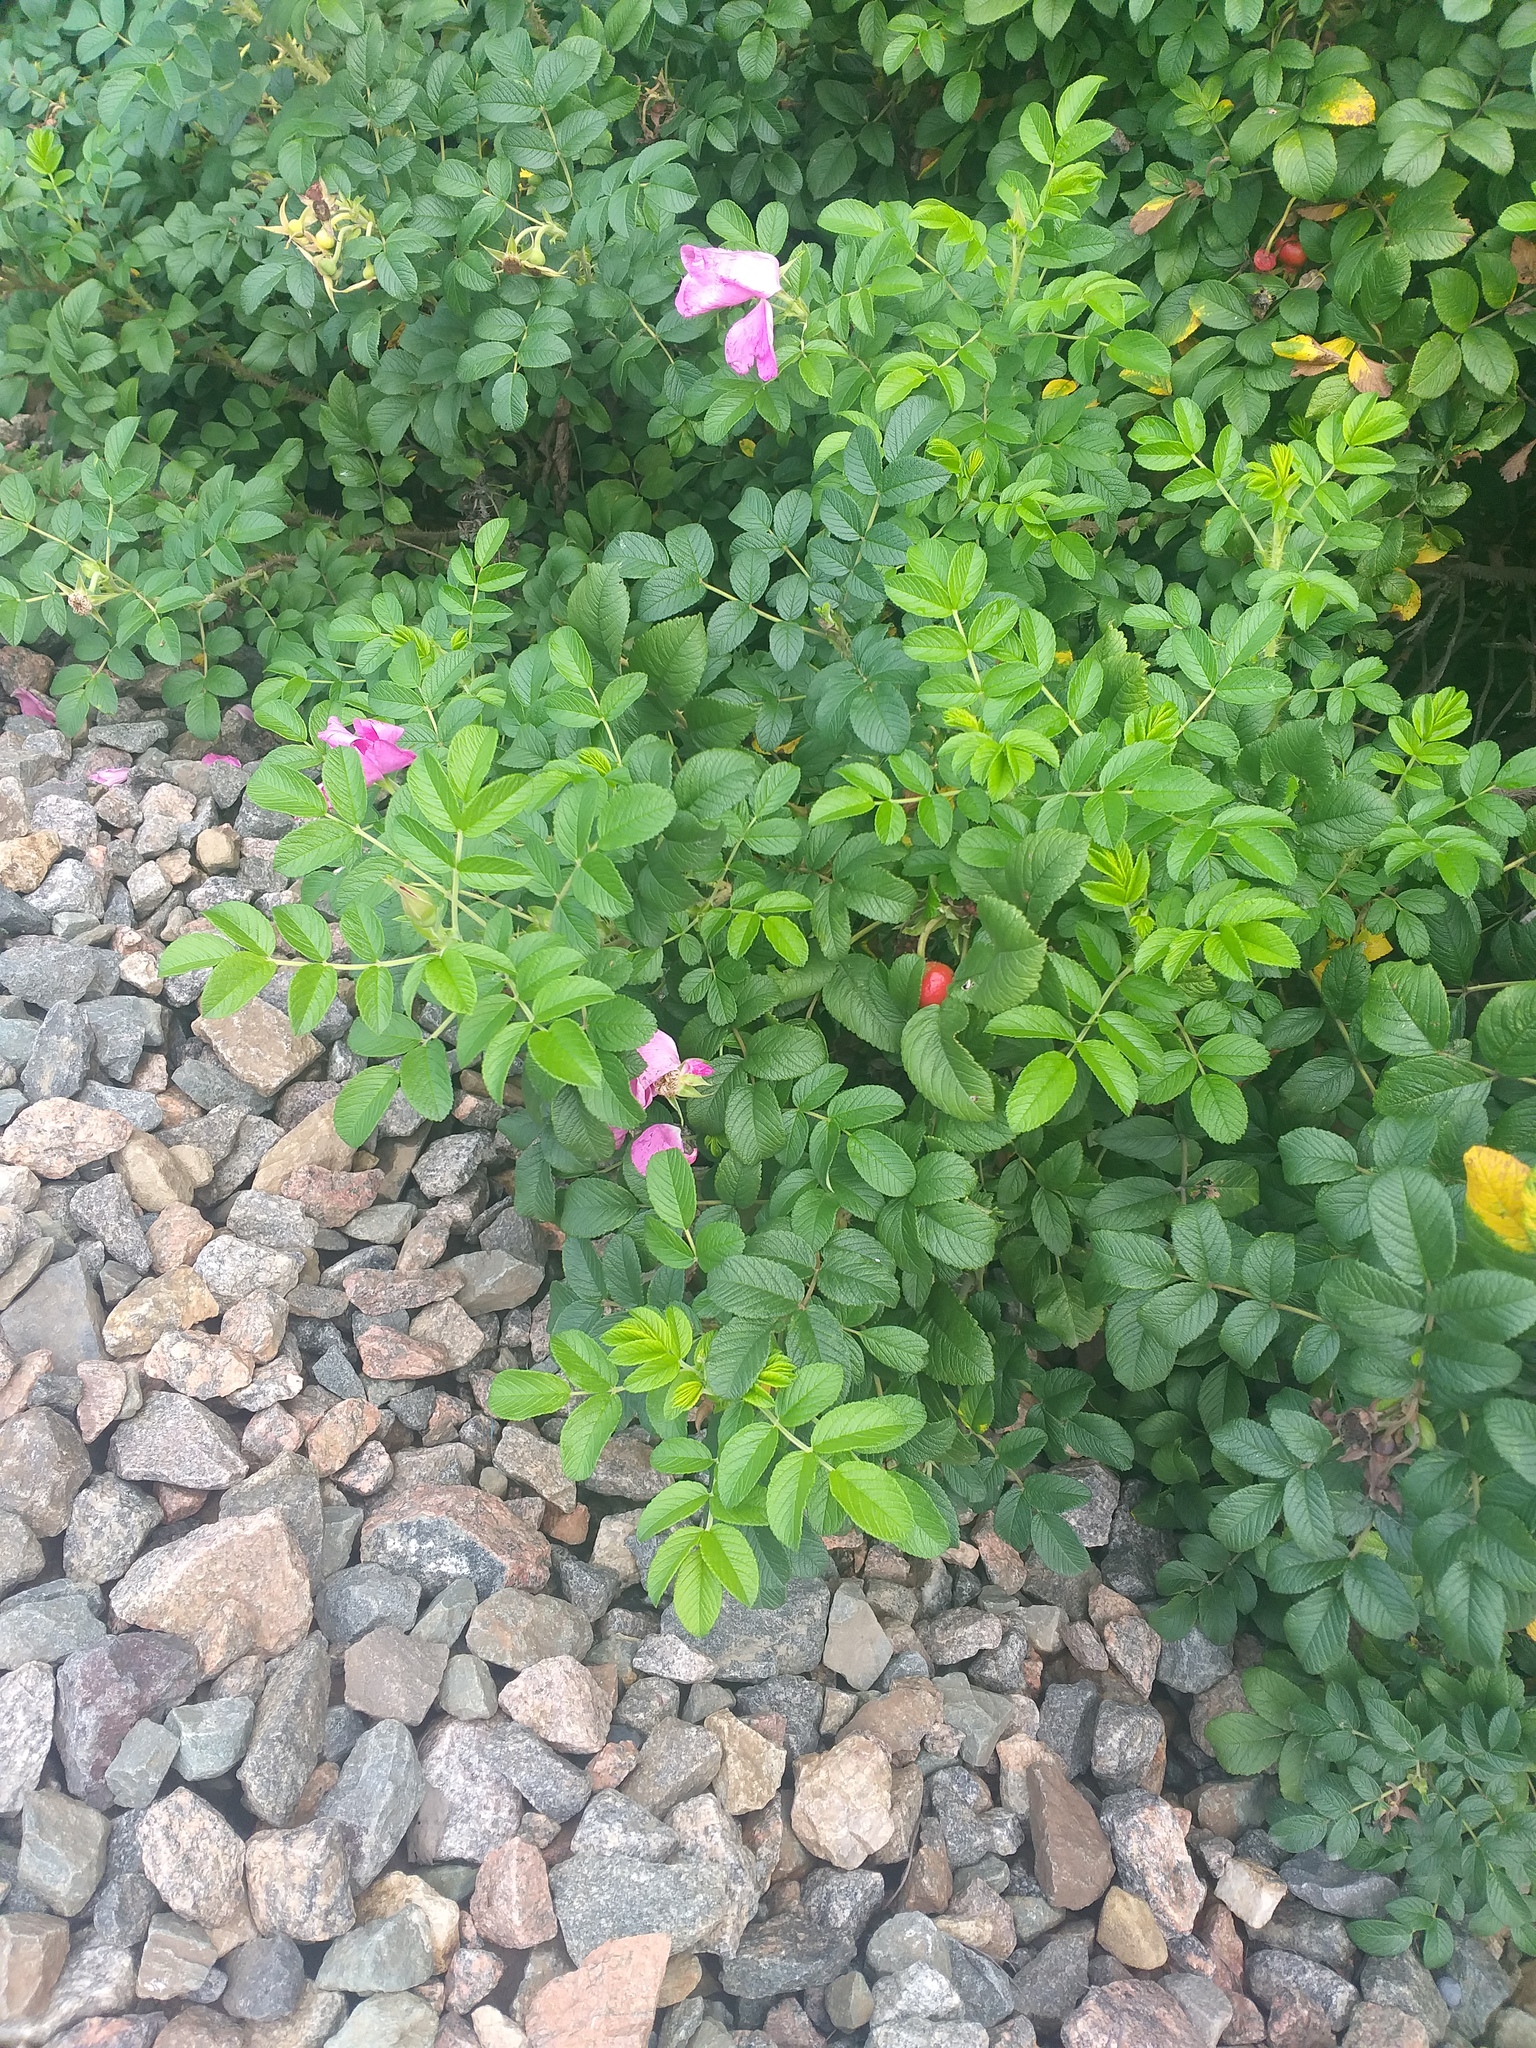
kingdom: Plantae
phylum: Tracheophyta
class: Magnoliopsida
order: Rosales
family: Rosaceae
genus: Rosa
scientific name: Rosa rugosa
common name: Japanese rose
